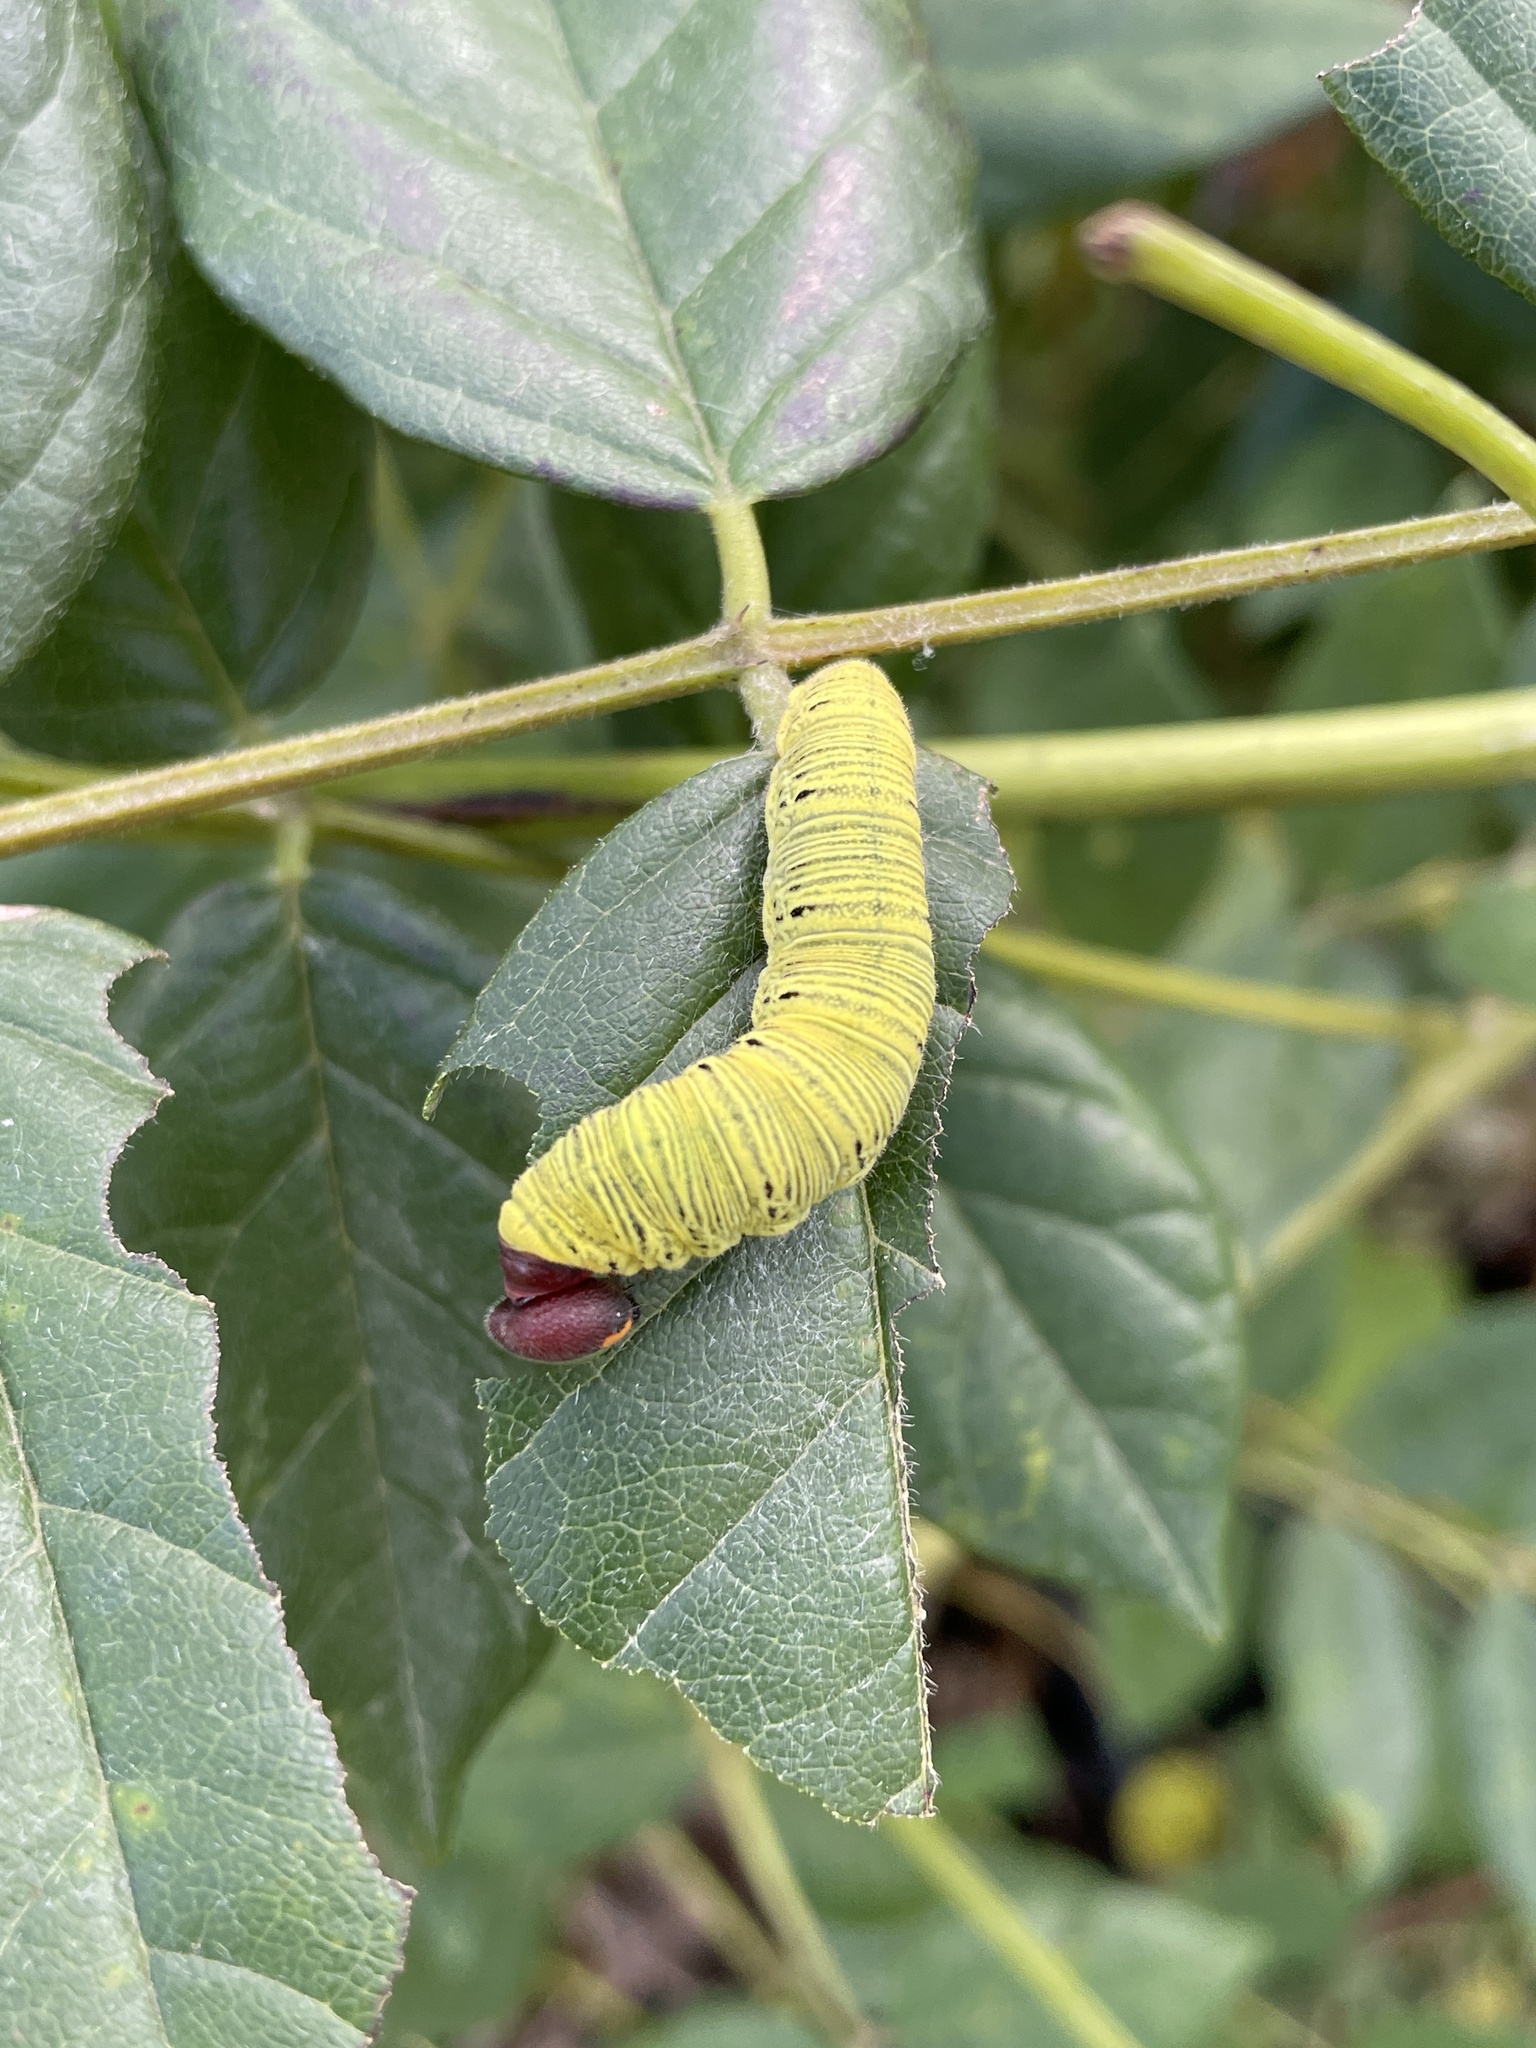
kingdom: Animalia
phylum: Arthropoda
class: Insecta
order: Lepidoptera
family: Hesperiidae
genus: Epargyreus
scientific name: Epargyreus clarus
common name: Silver-spotted skipper
